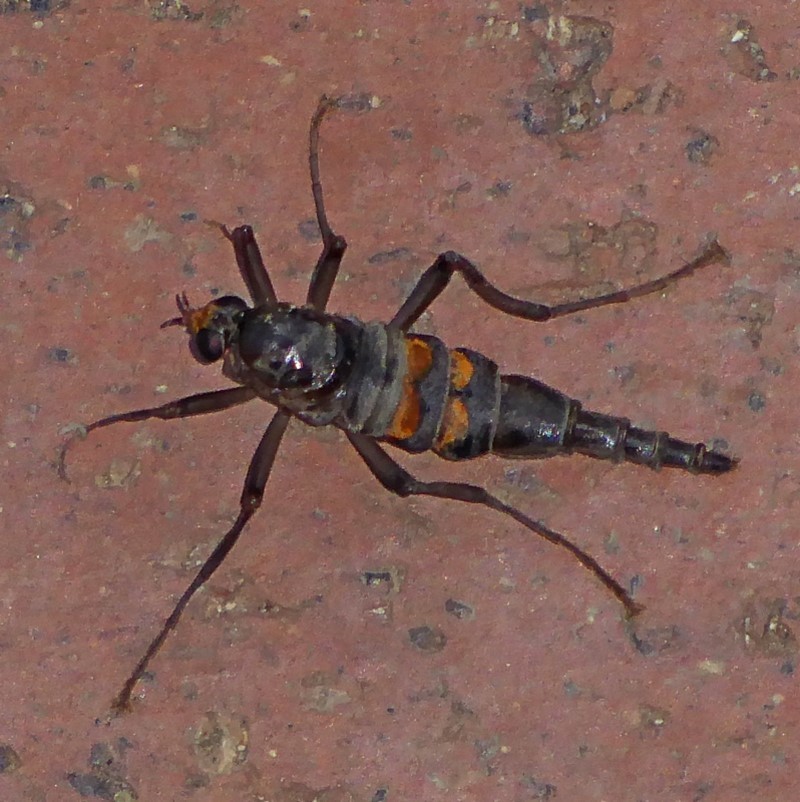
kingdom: Animalia
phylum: Arthropoda
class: Insecta
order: Diptera
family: Stratiomyidae
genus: Boreoides
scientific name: Boreoides subulatus
